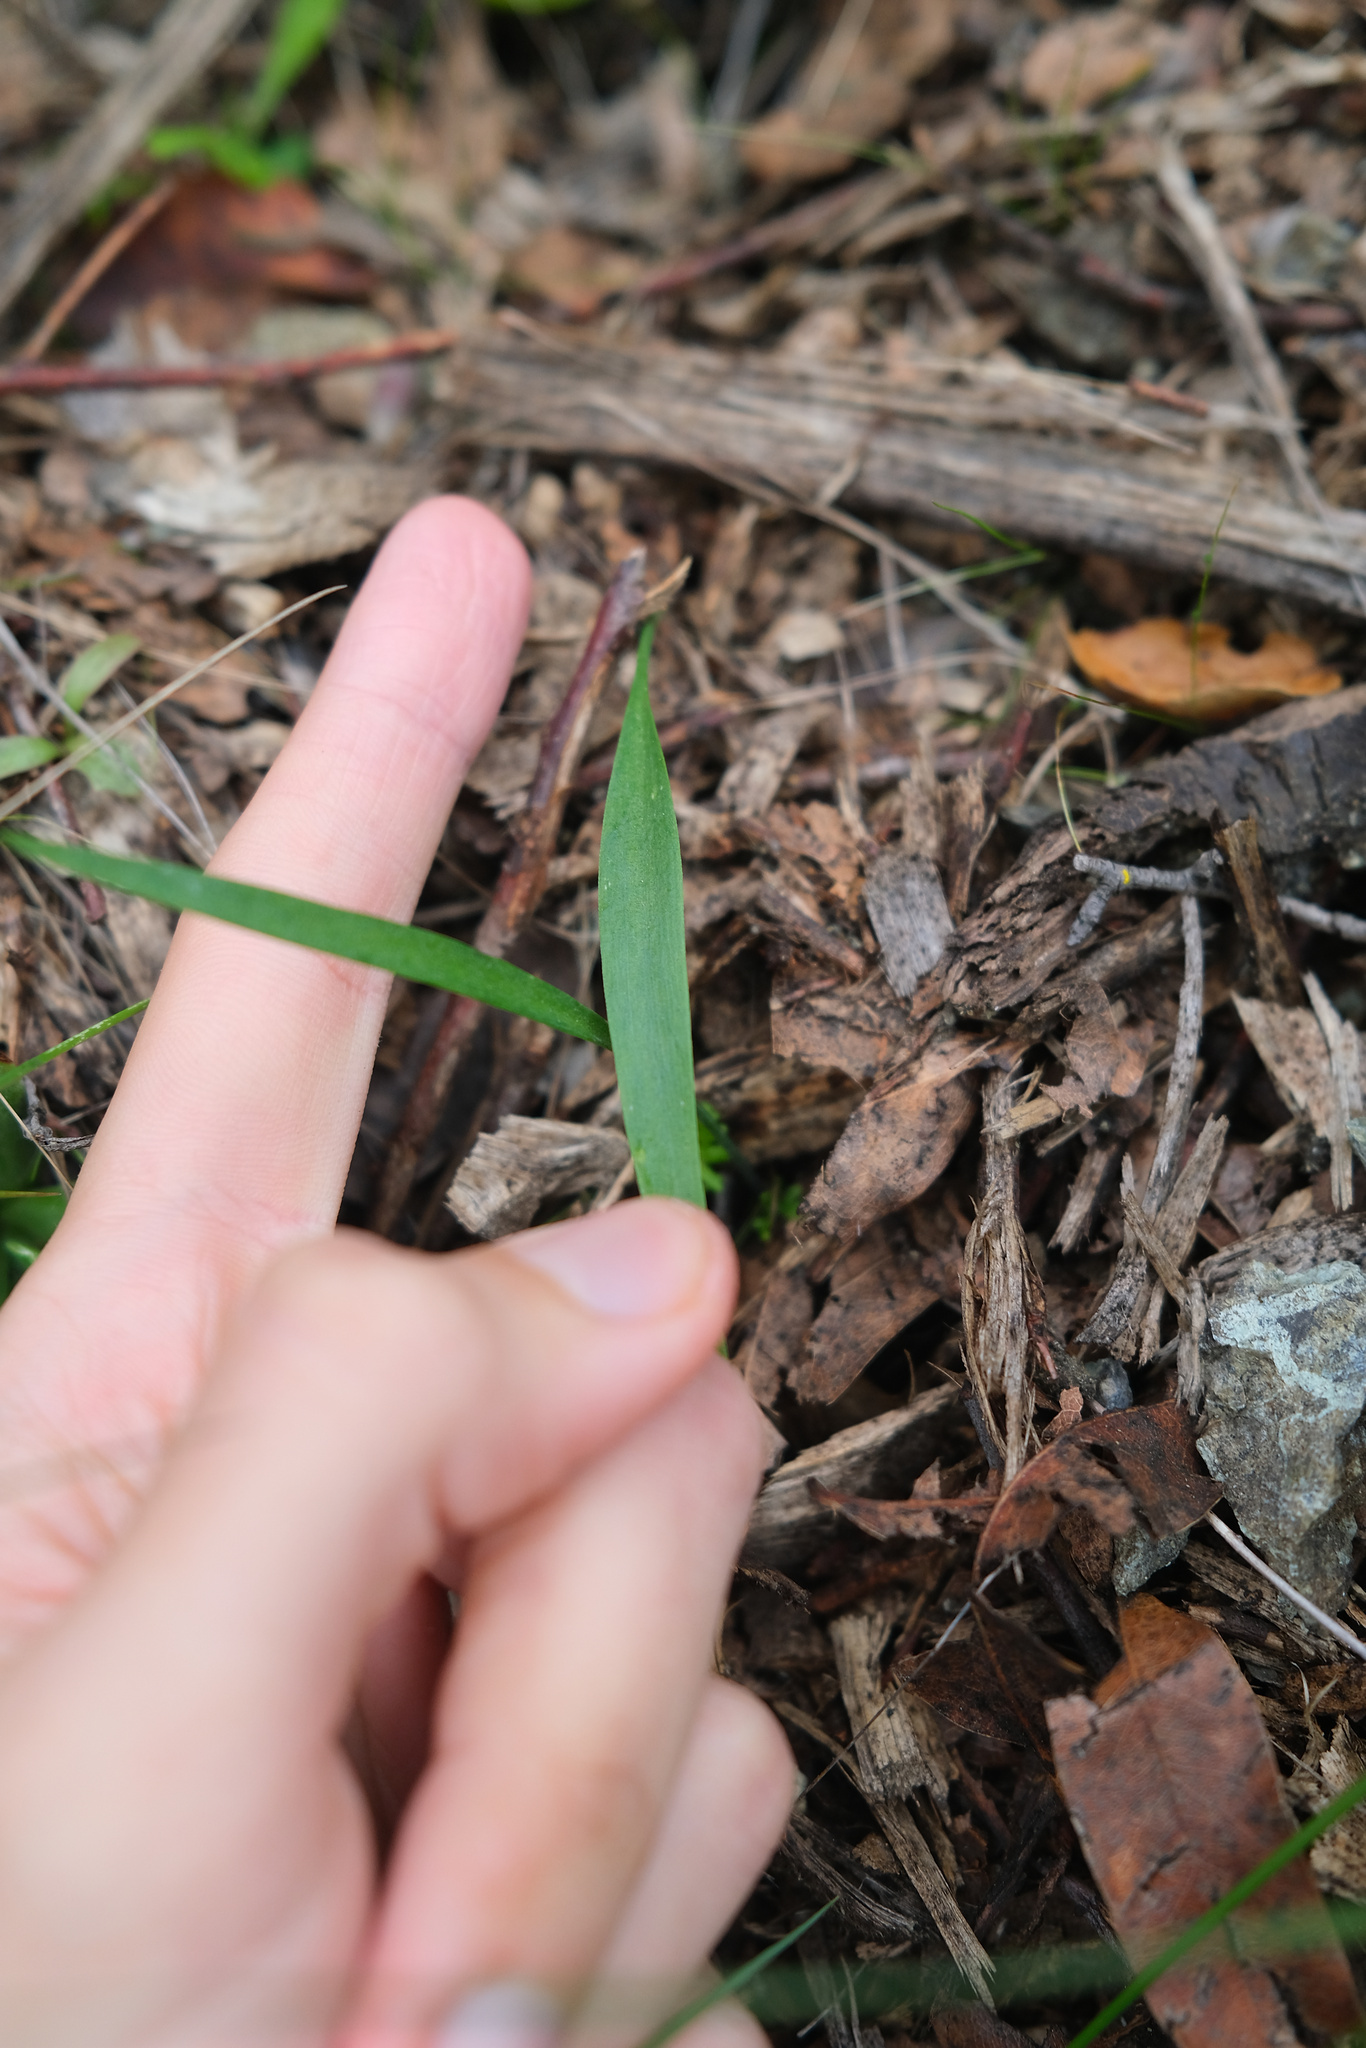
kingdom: Plantae
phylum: Tracheophyta
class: Liliopsida
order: Liliales
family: Liliaceae
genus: Fritillaria
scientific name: Fritillaria ojaiensis
